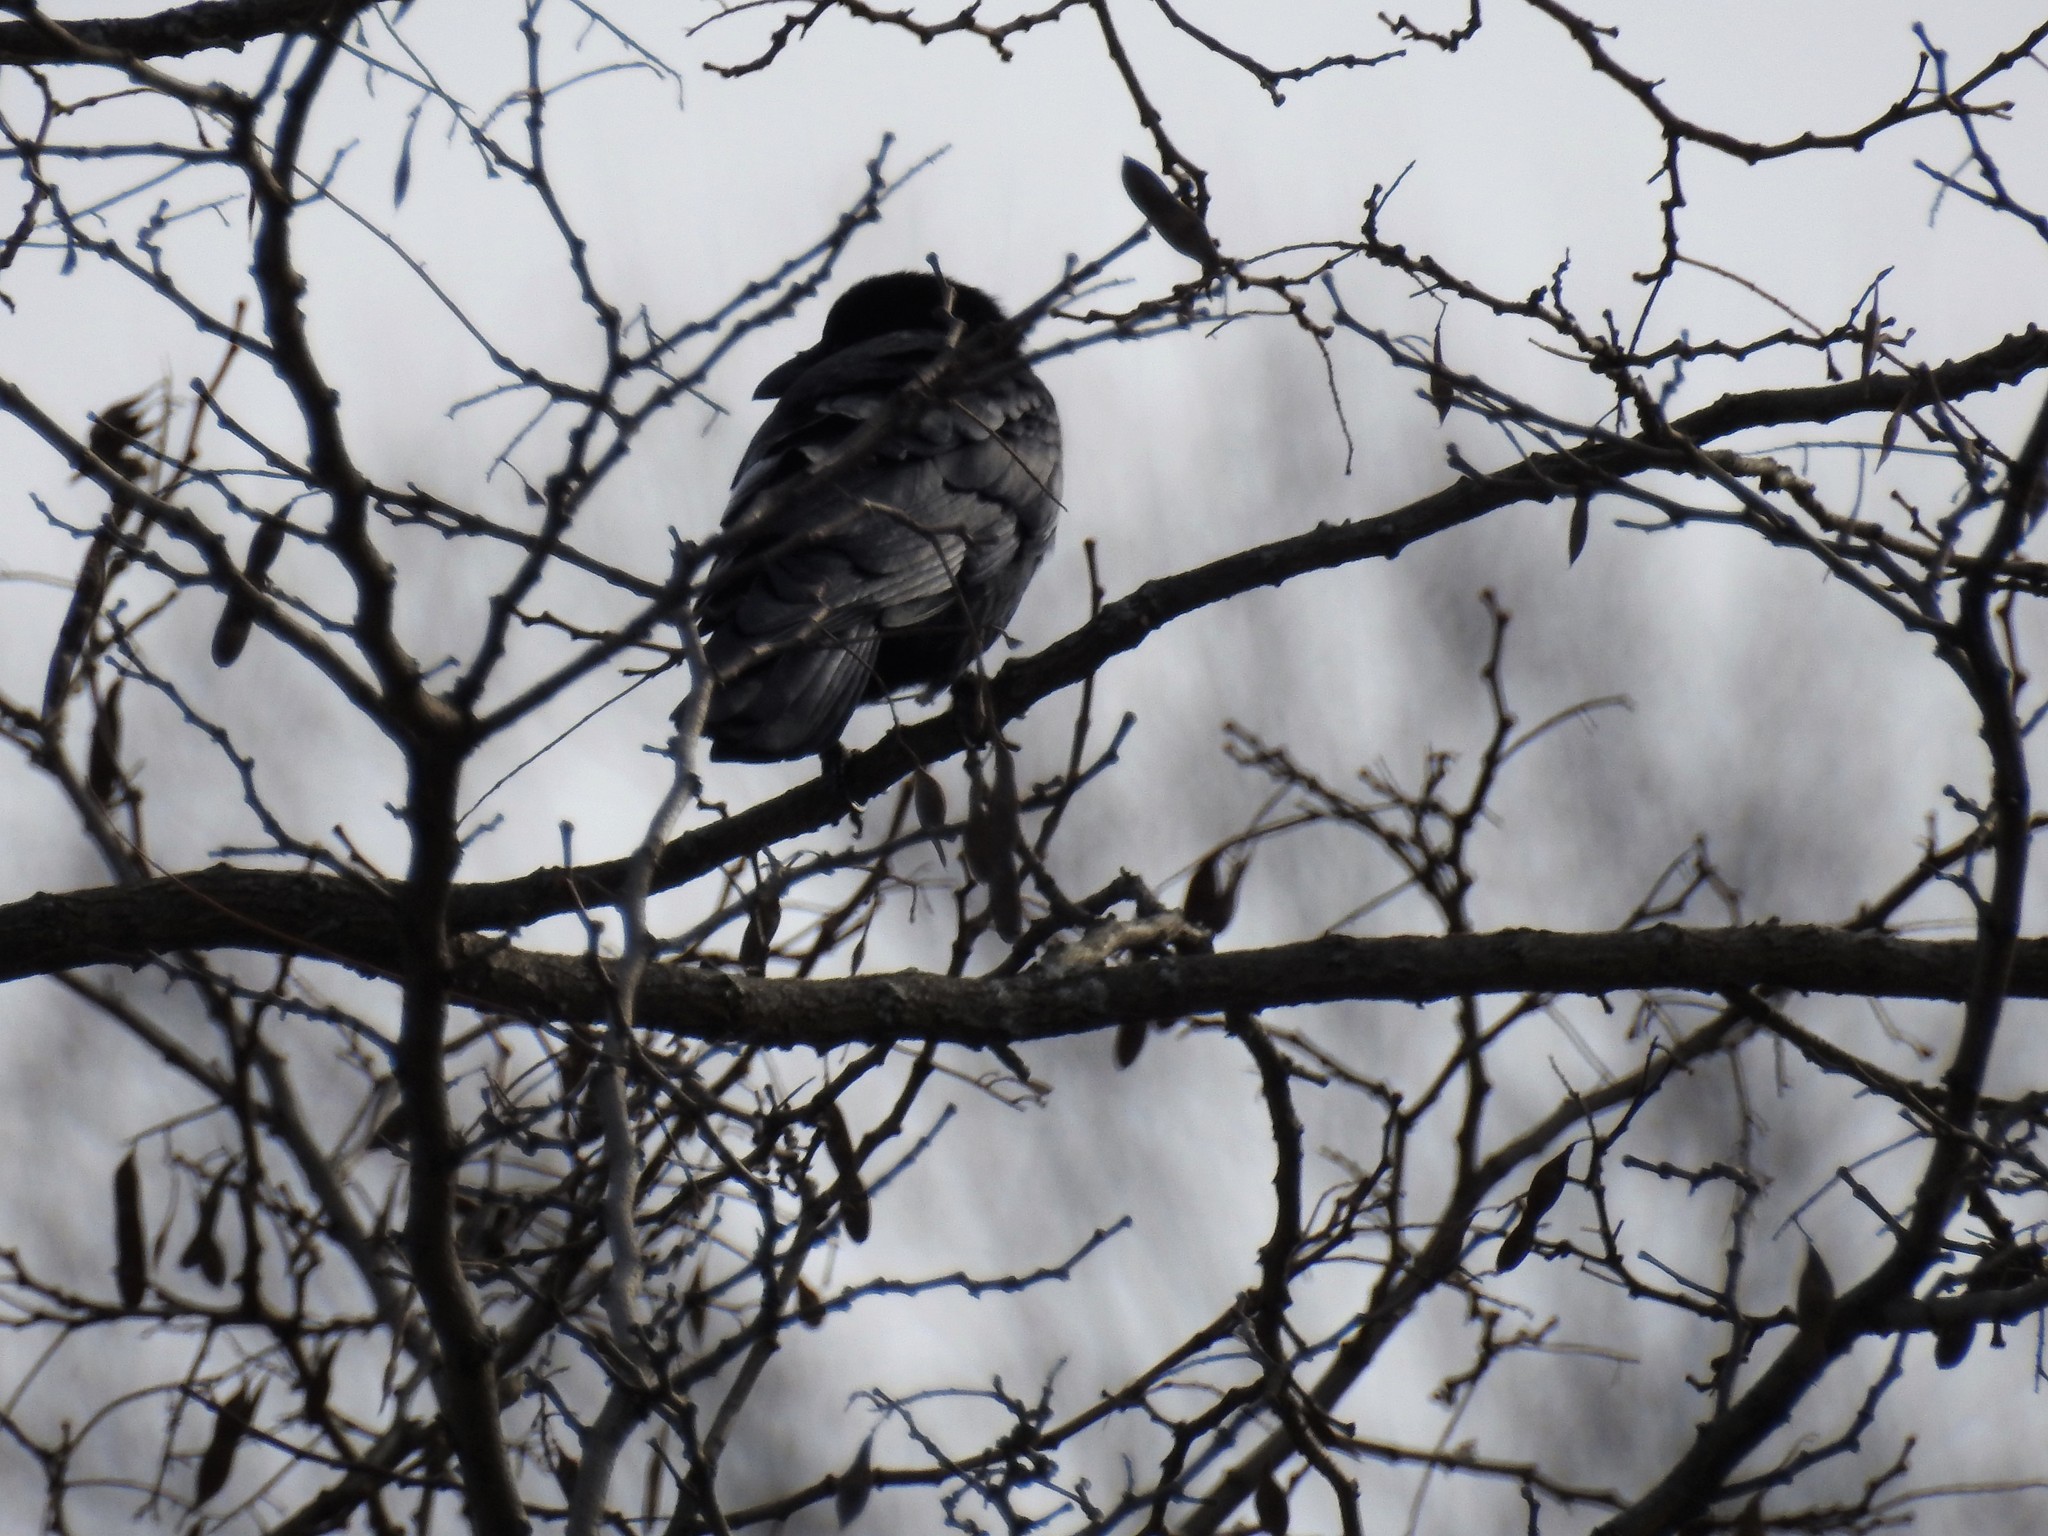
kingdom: Animalia
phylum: Chordata
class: Aves
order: Passeriformes
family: Corvidae
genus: Corvus
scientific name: Corvus ossifragus
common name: Fish crow
